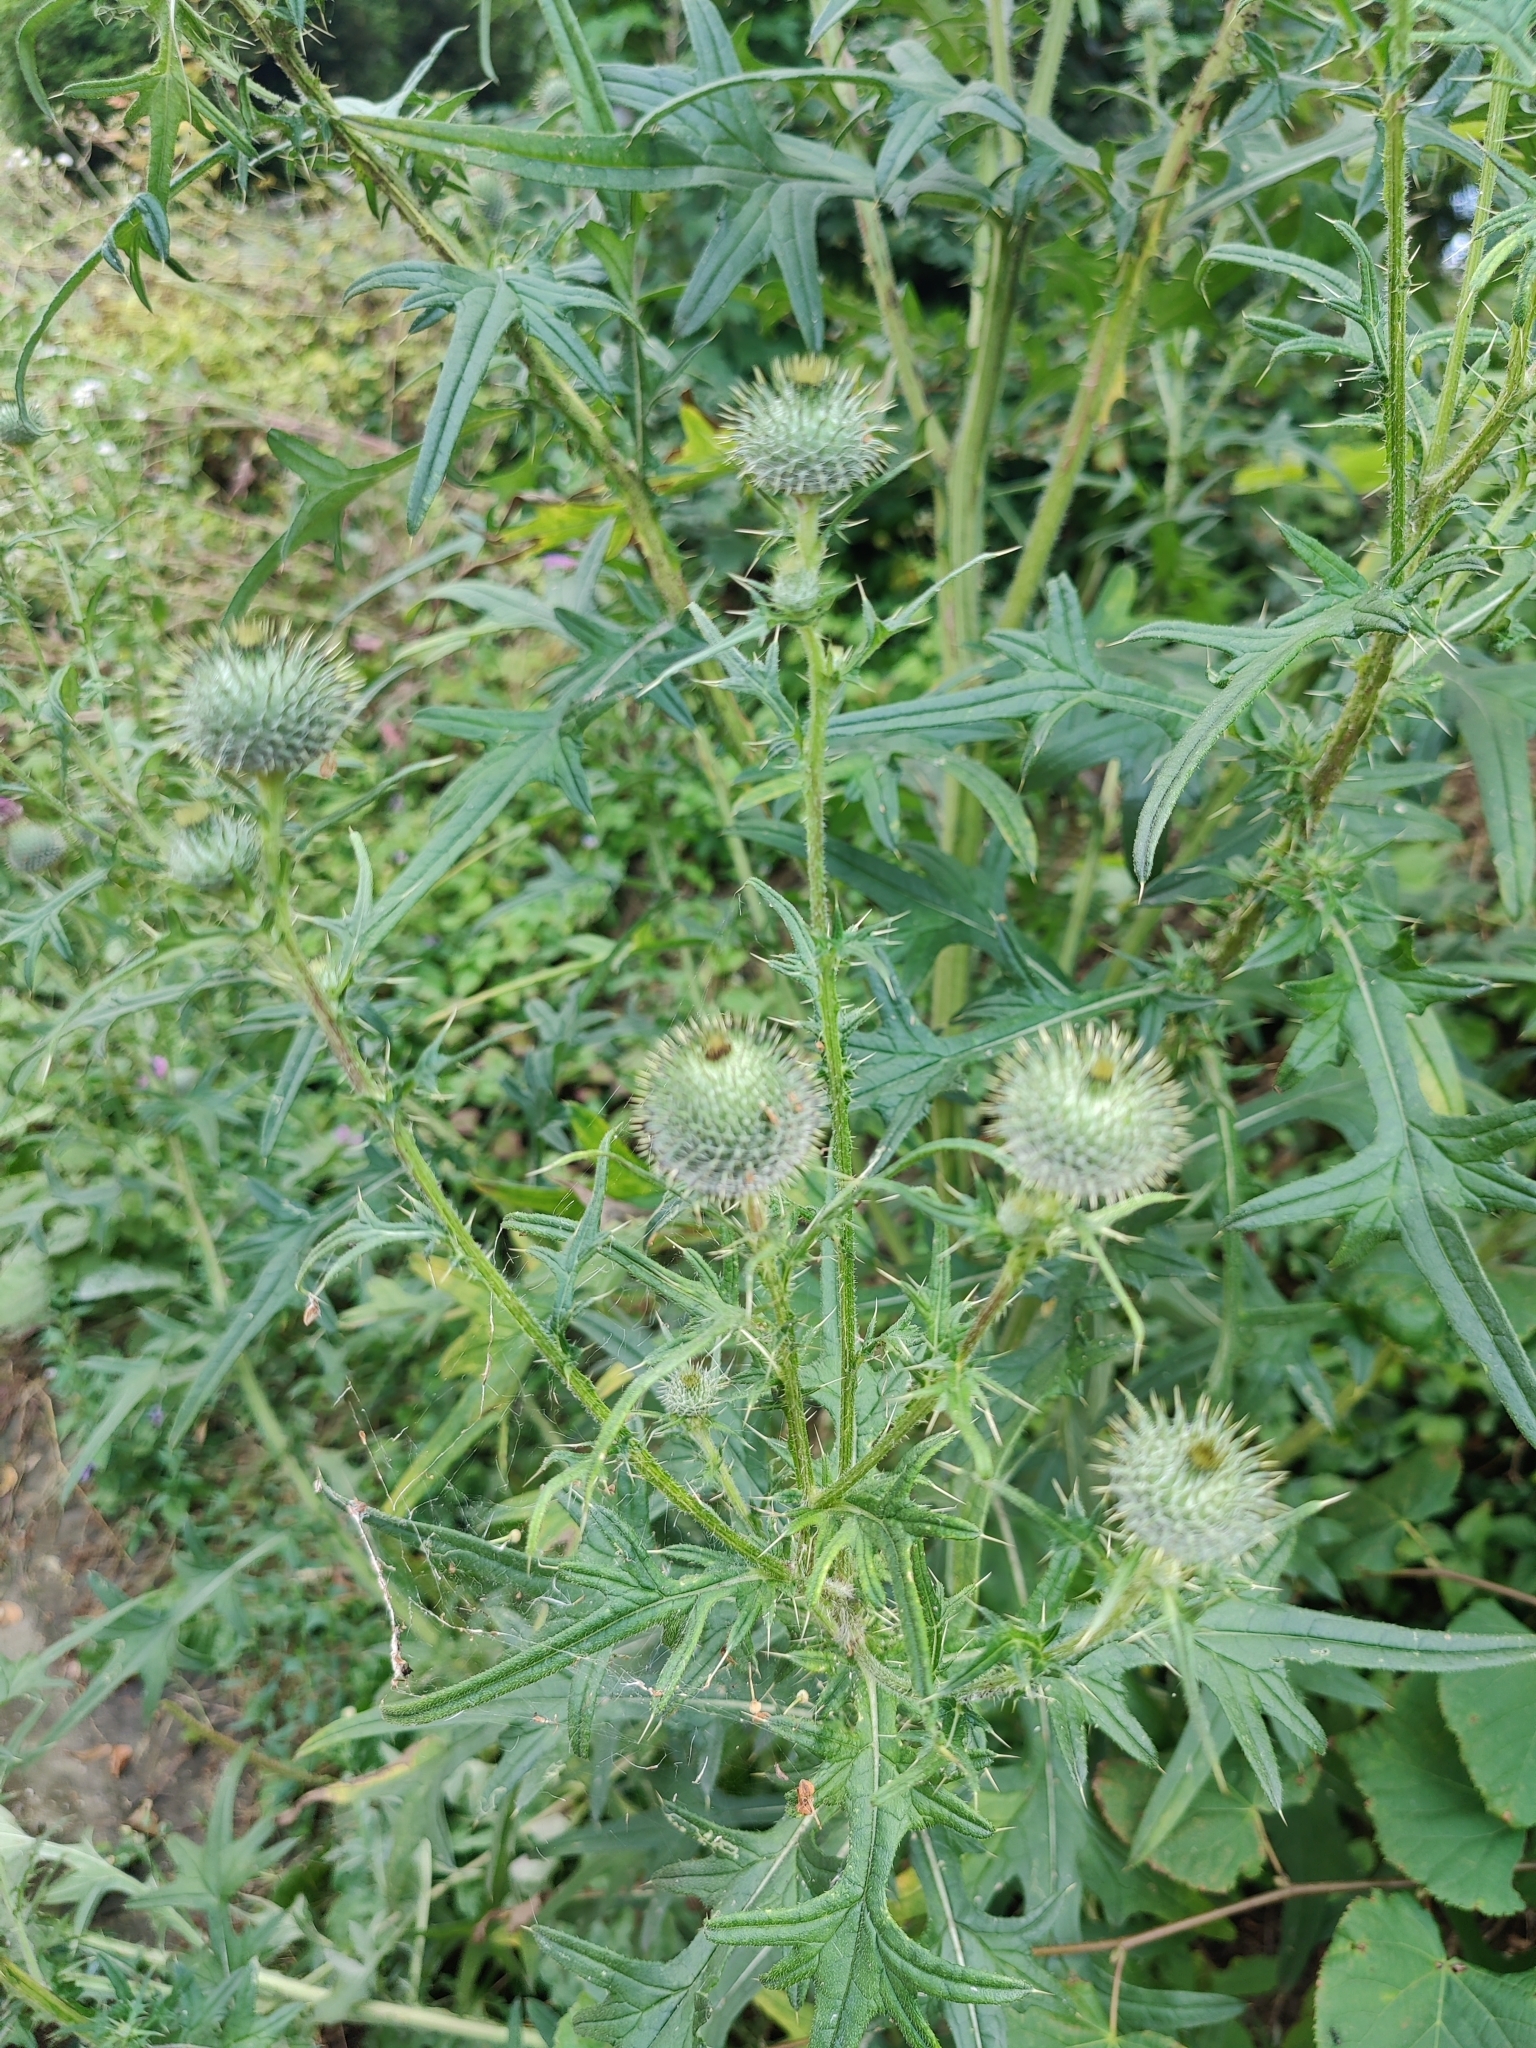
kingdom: Plantae
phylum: Tracheophyta
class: Magnoliopsida
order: Asterales
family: Asteraceae
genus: Cirsium
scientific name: Cirsium vulgare
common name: Bull thistle
